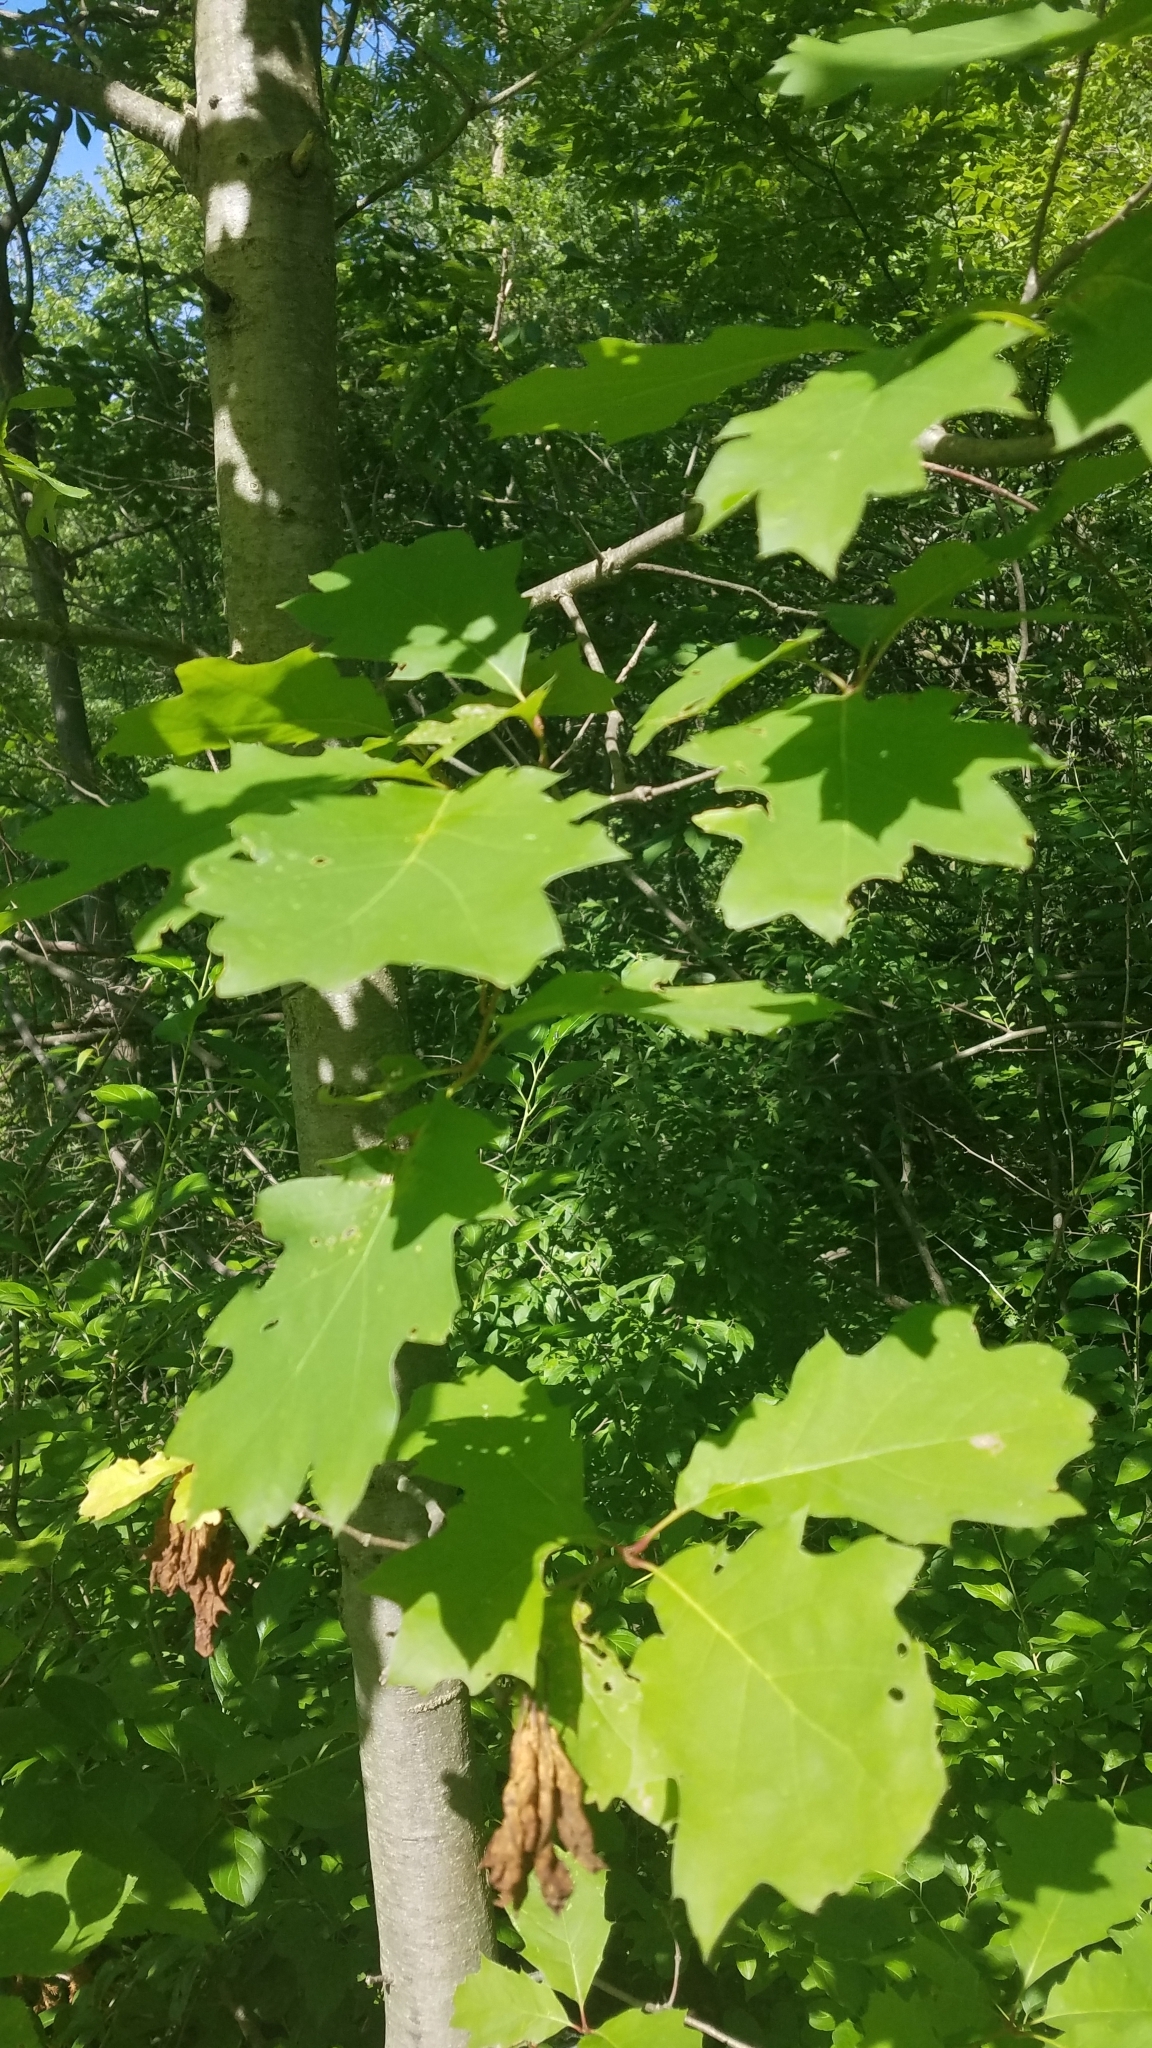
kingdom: Plantae
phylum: Tracheophyta
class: Magnoliopsida
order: Fagales
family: Fagaceae
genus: Quercus
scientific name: Quercus rubra
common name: Red oak
